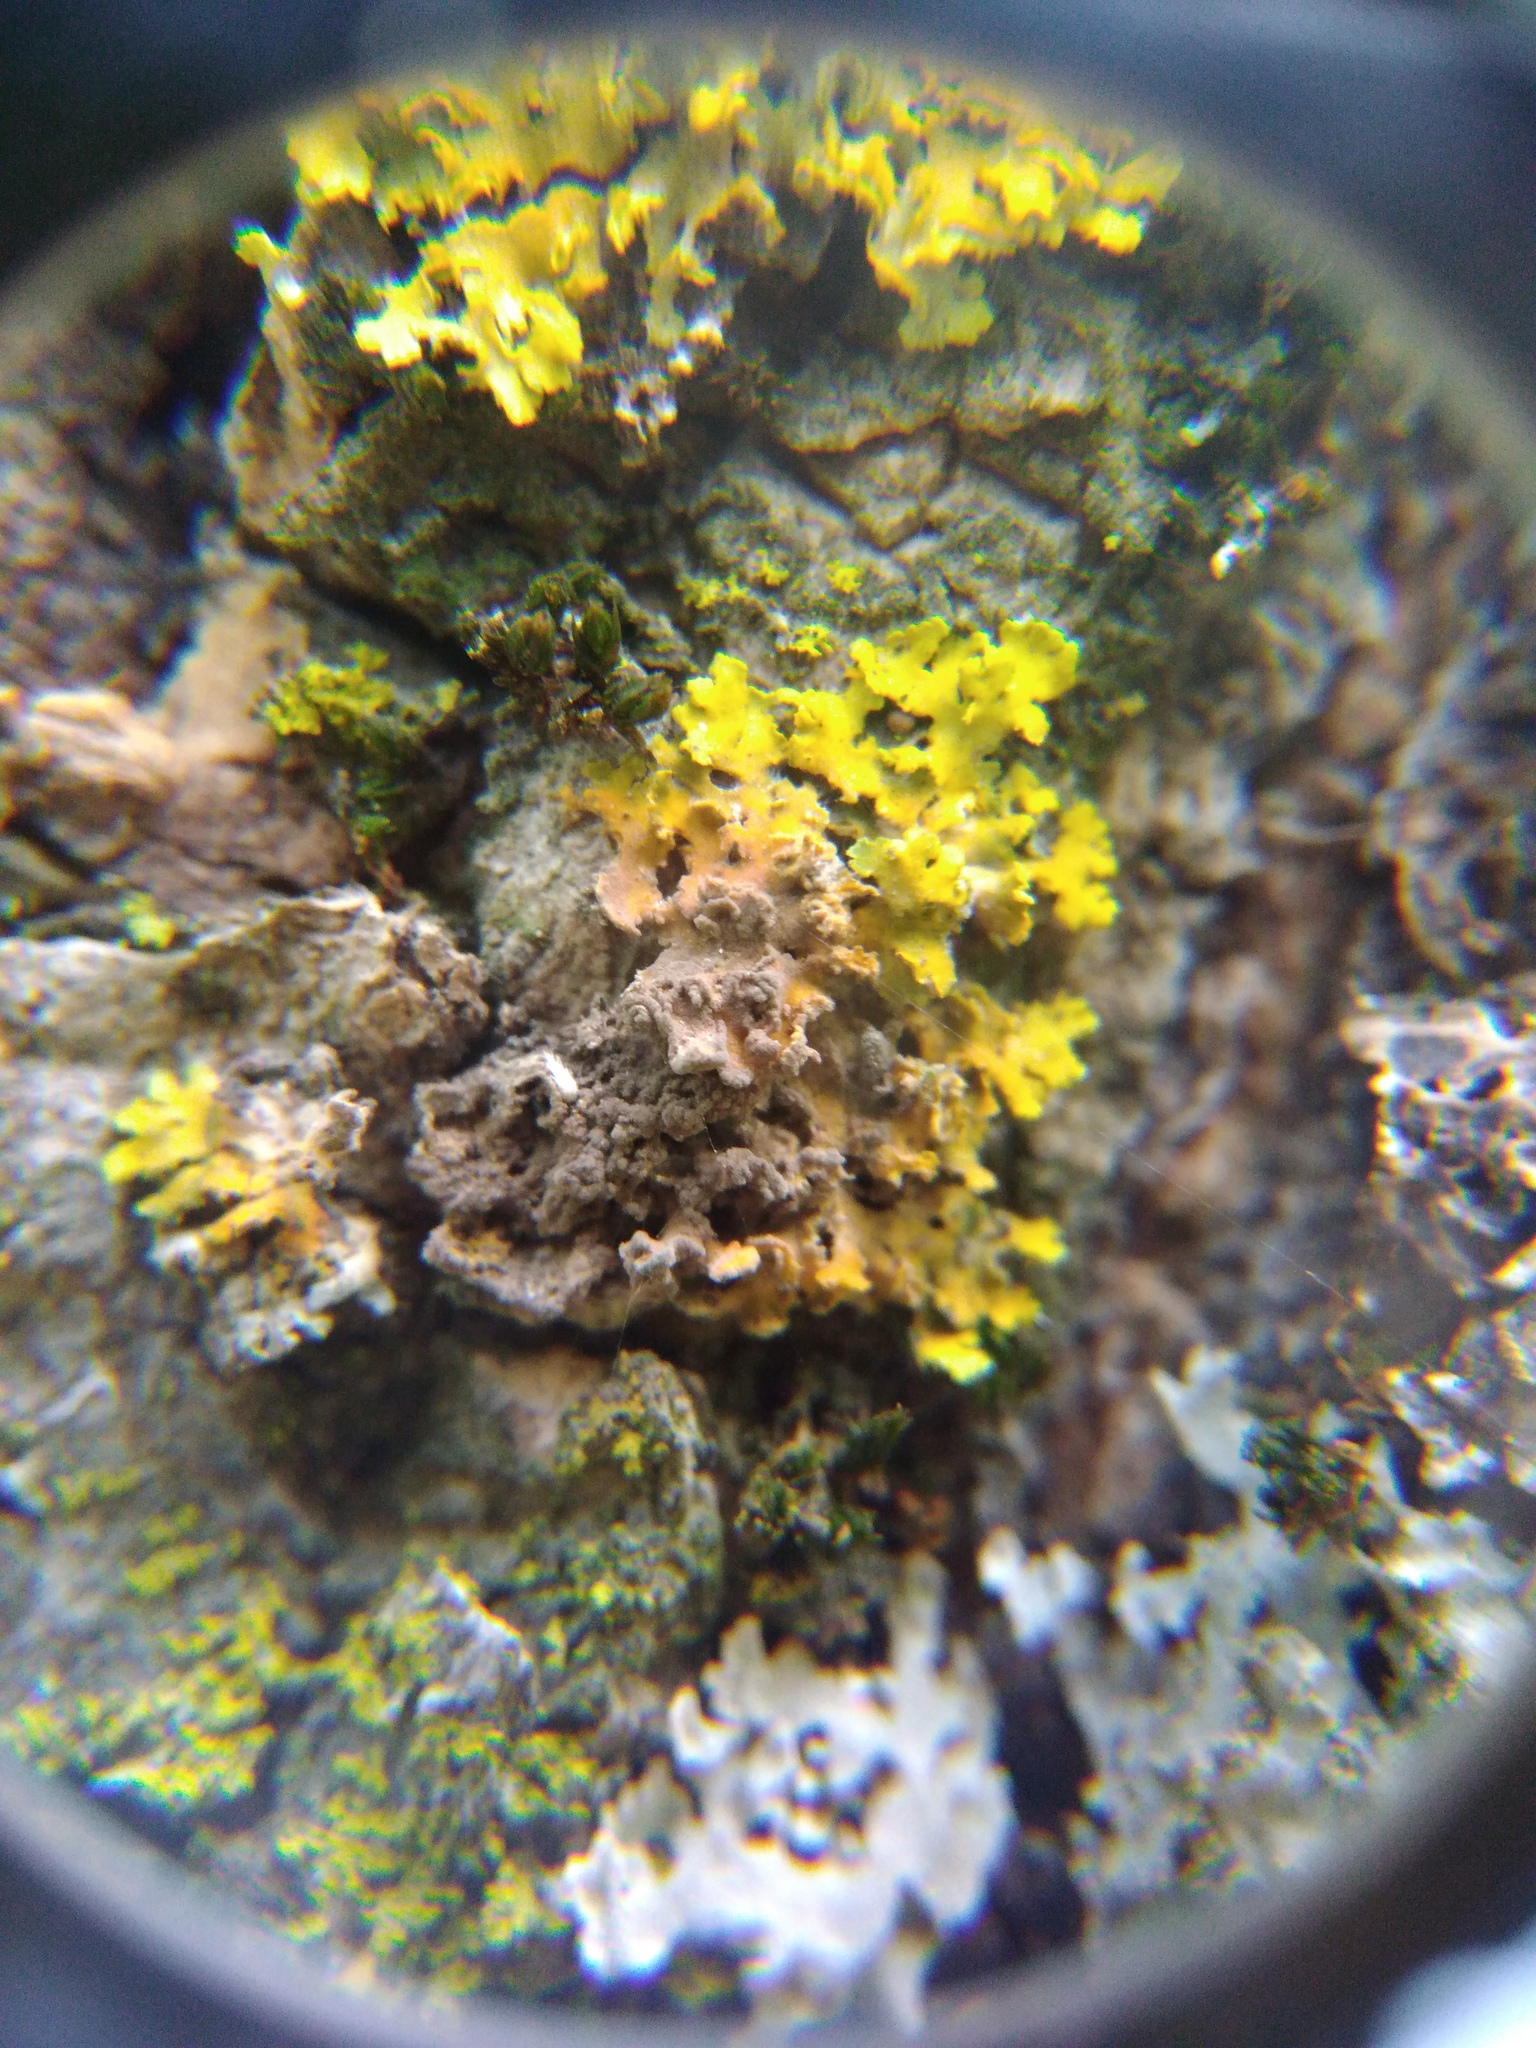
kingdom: Fungi
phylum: Ascomycota
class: Dothideomycetes
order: Capnodiales
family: Cladosporiaceae
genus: Cladosporium
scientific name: Cladosporium licheniphilum
